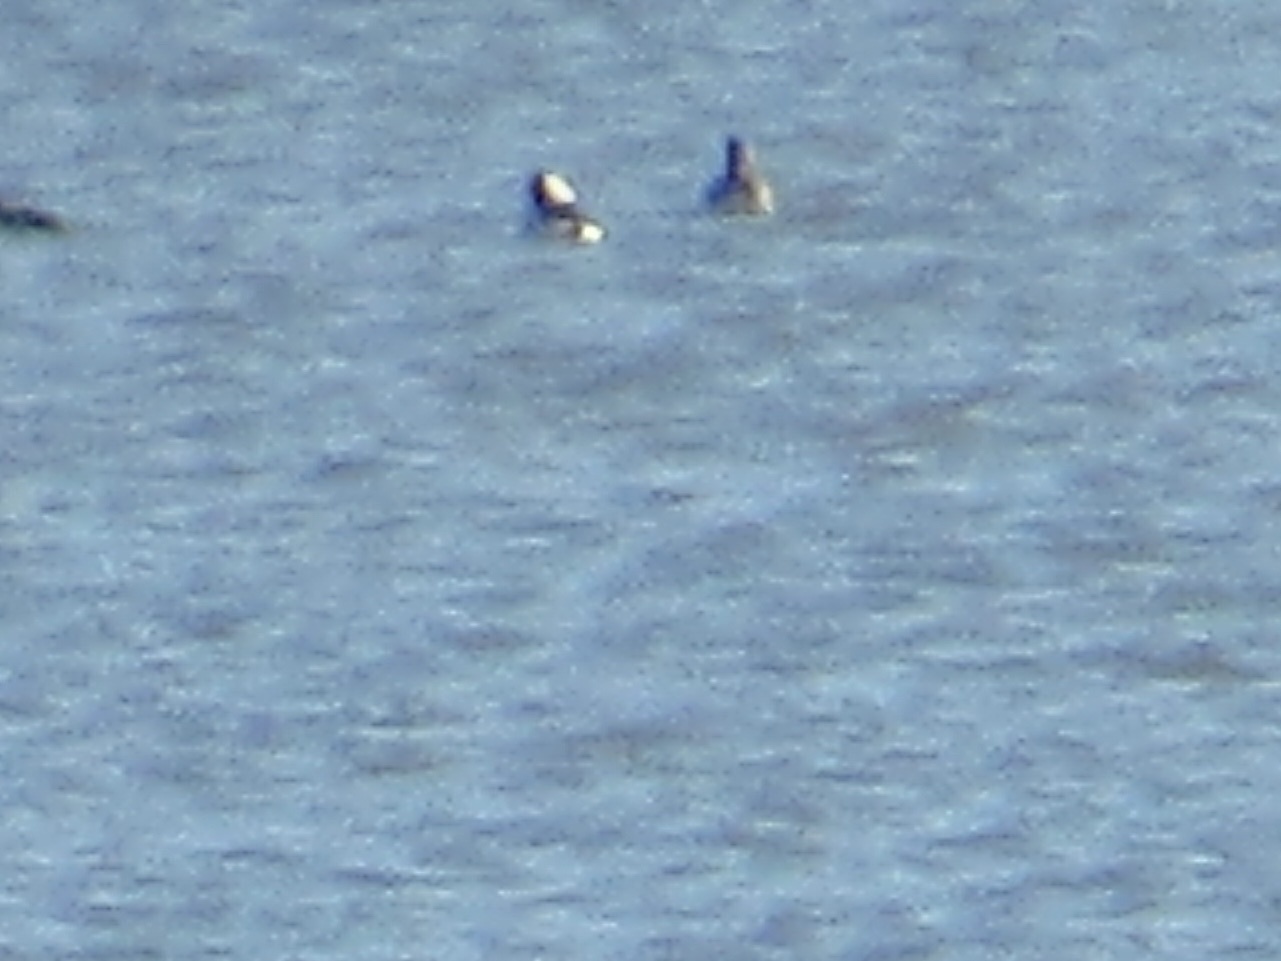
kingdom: Animalia
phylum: Chordata
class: Aves
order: Anseriformes
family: Anatidae
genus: Lophodytes
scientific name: Lophodytes cucullatus
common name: Hooded merganser
